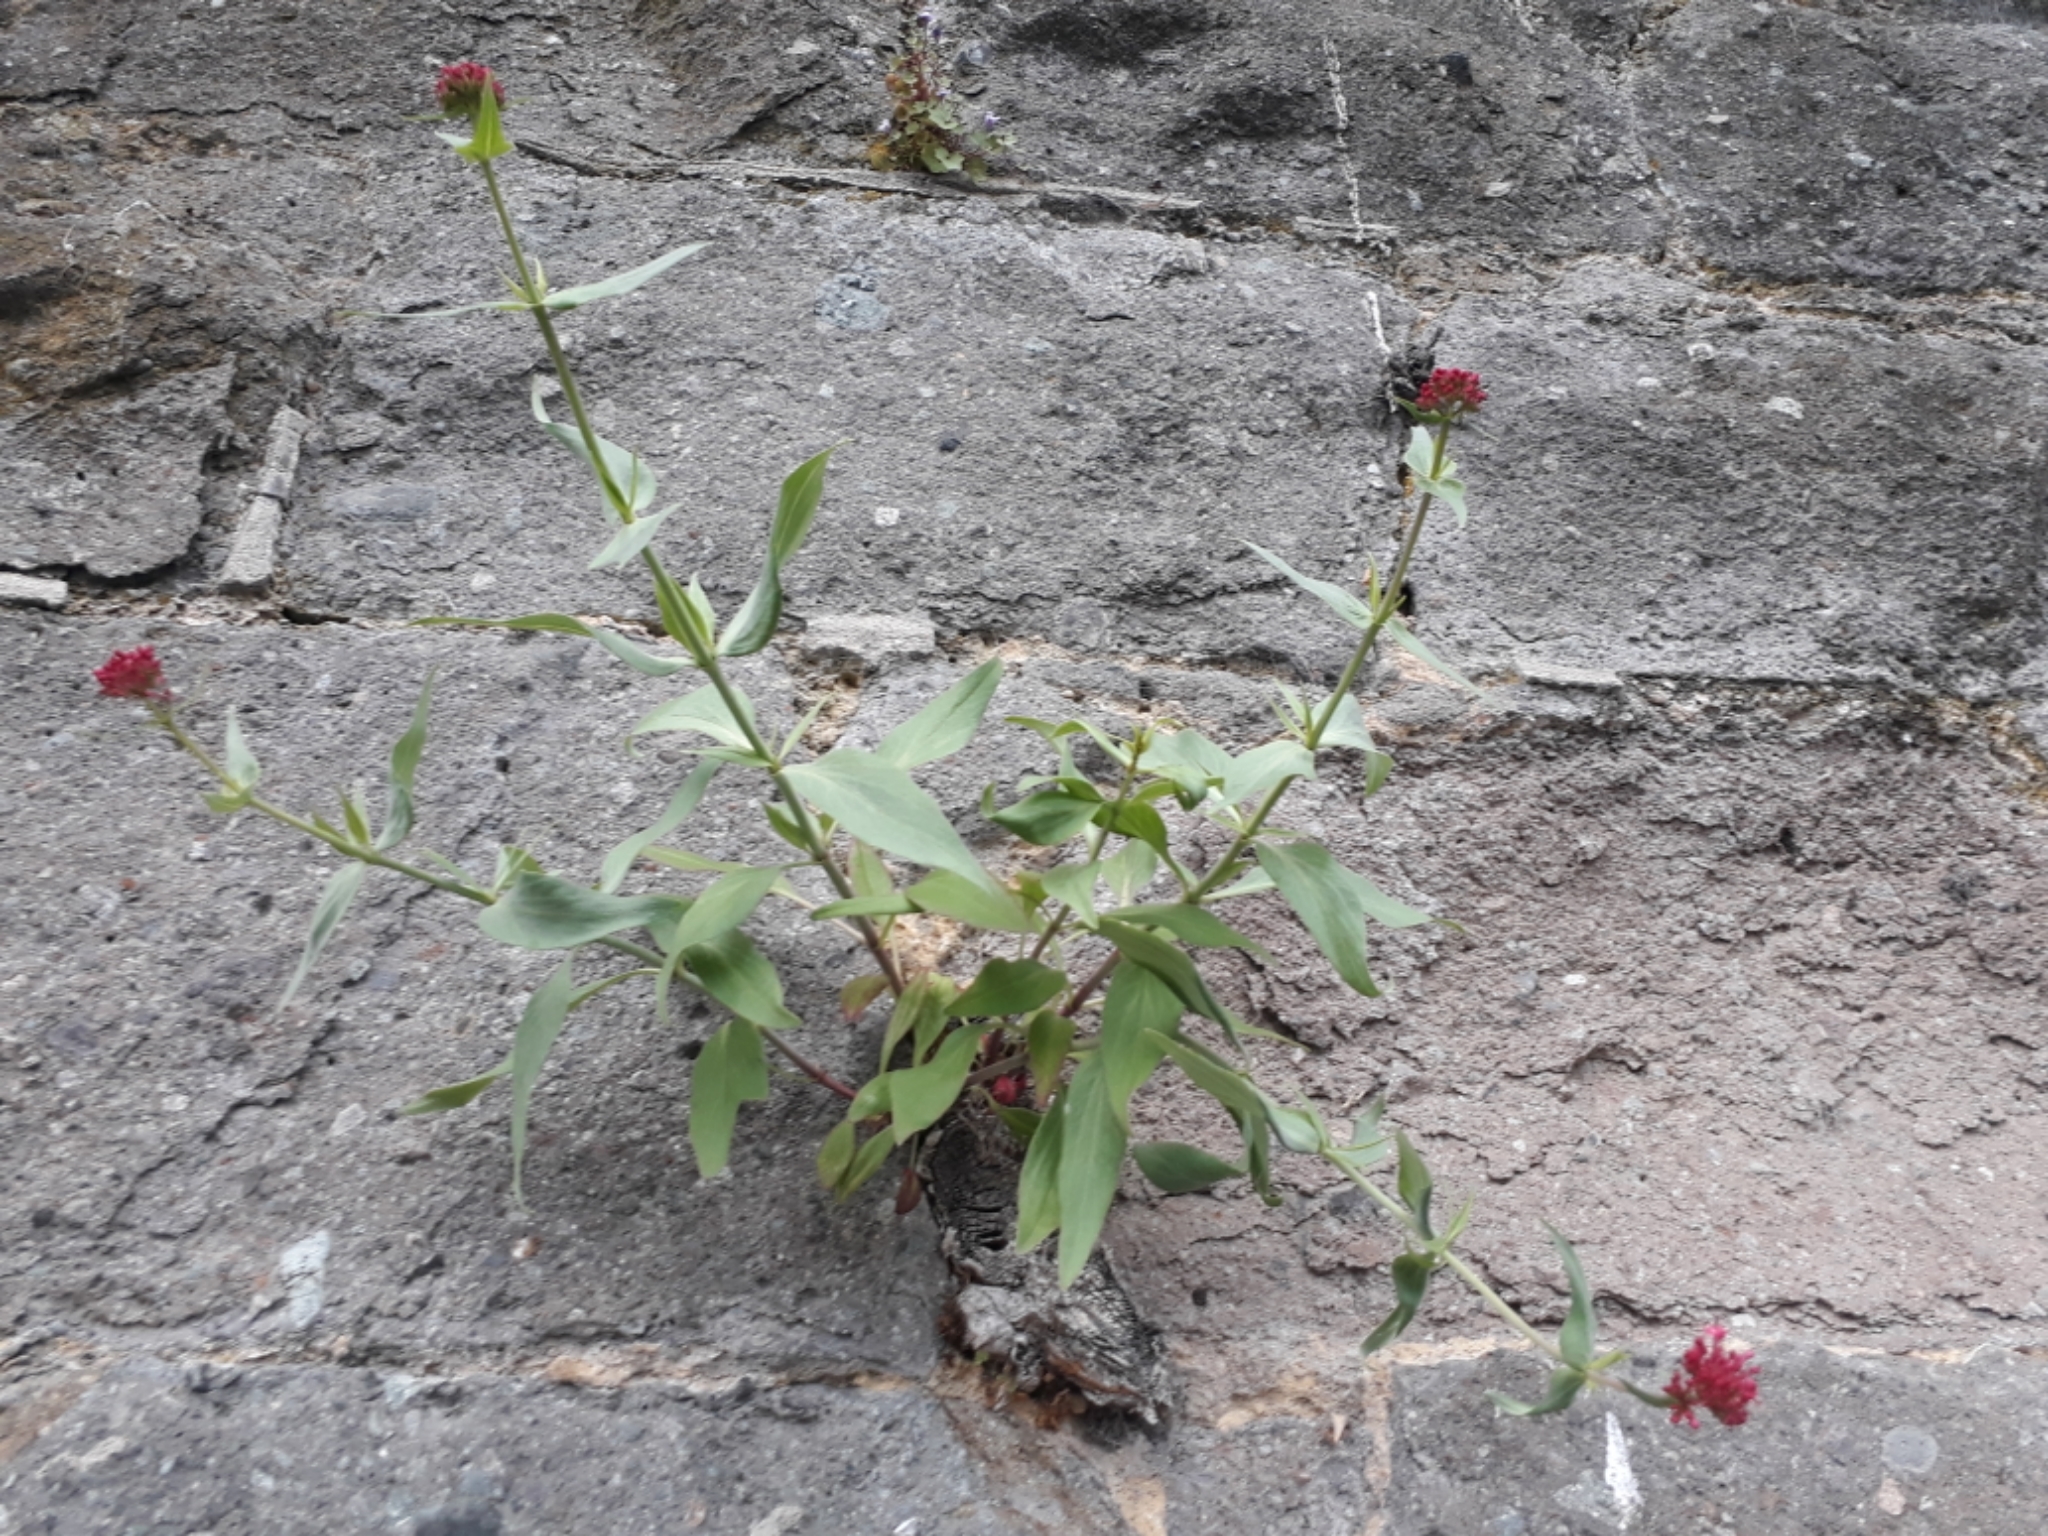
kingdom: Plantae
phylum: Tracheophyta
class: Magnoliopsida
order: Dipsacales
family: Caprifoliaceae
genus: Centranthus
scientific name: Centranthus ruber
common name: Red valerian
